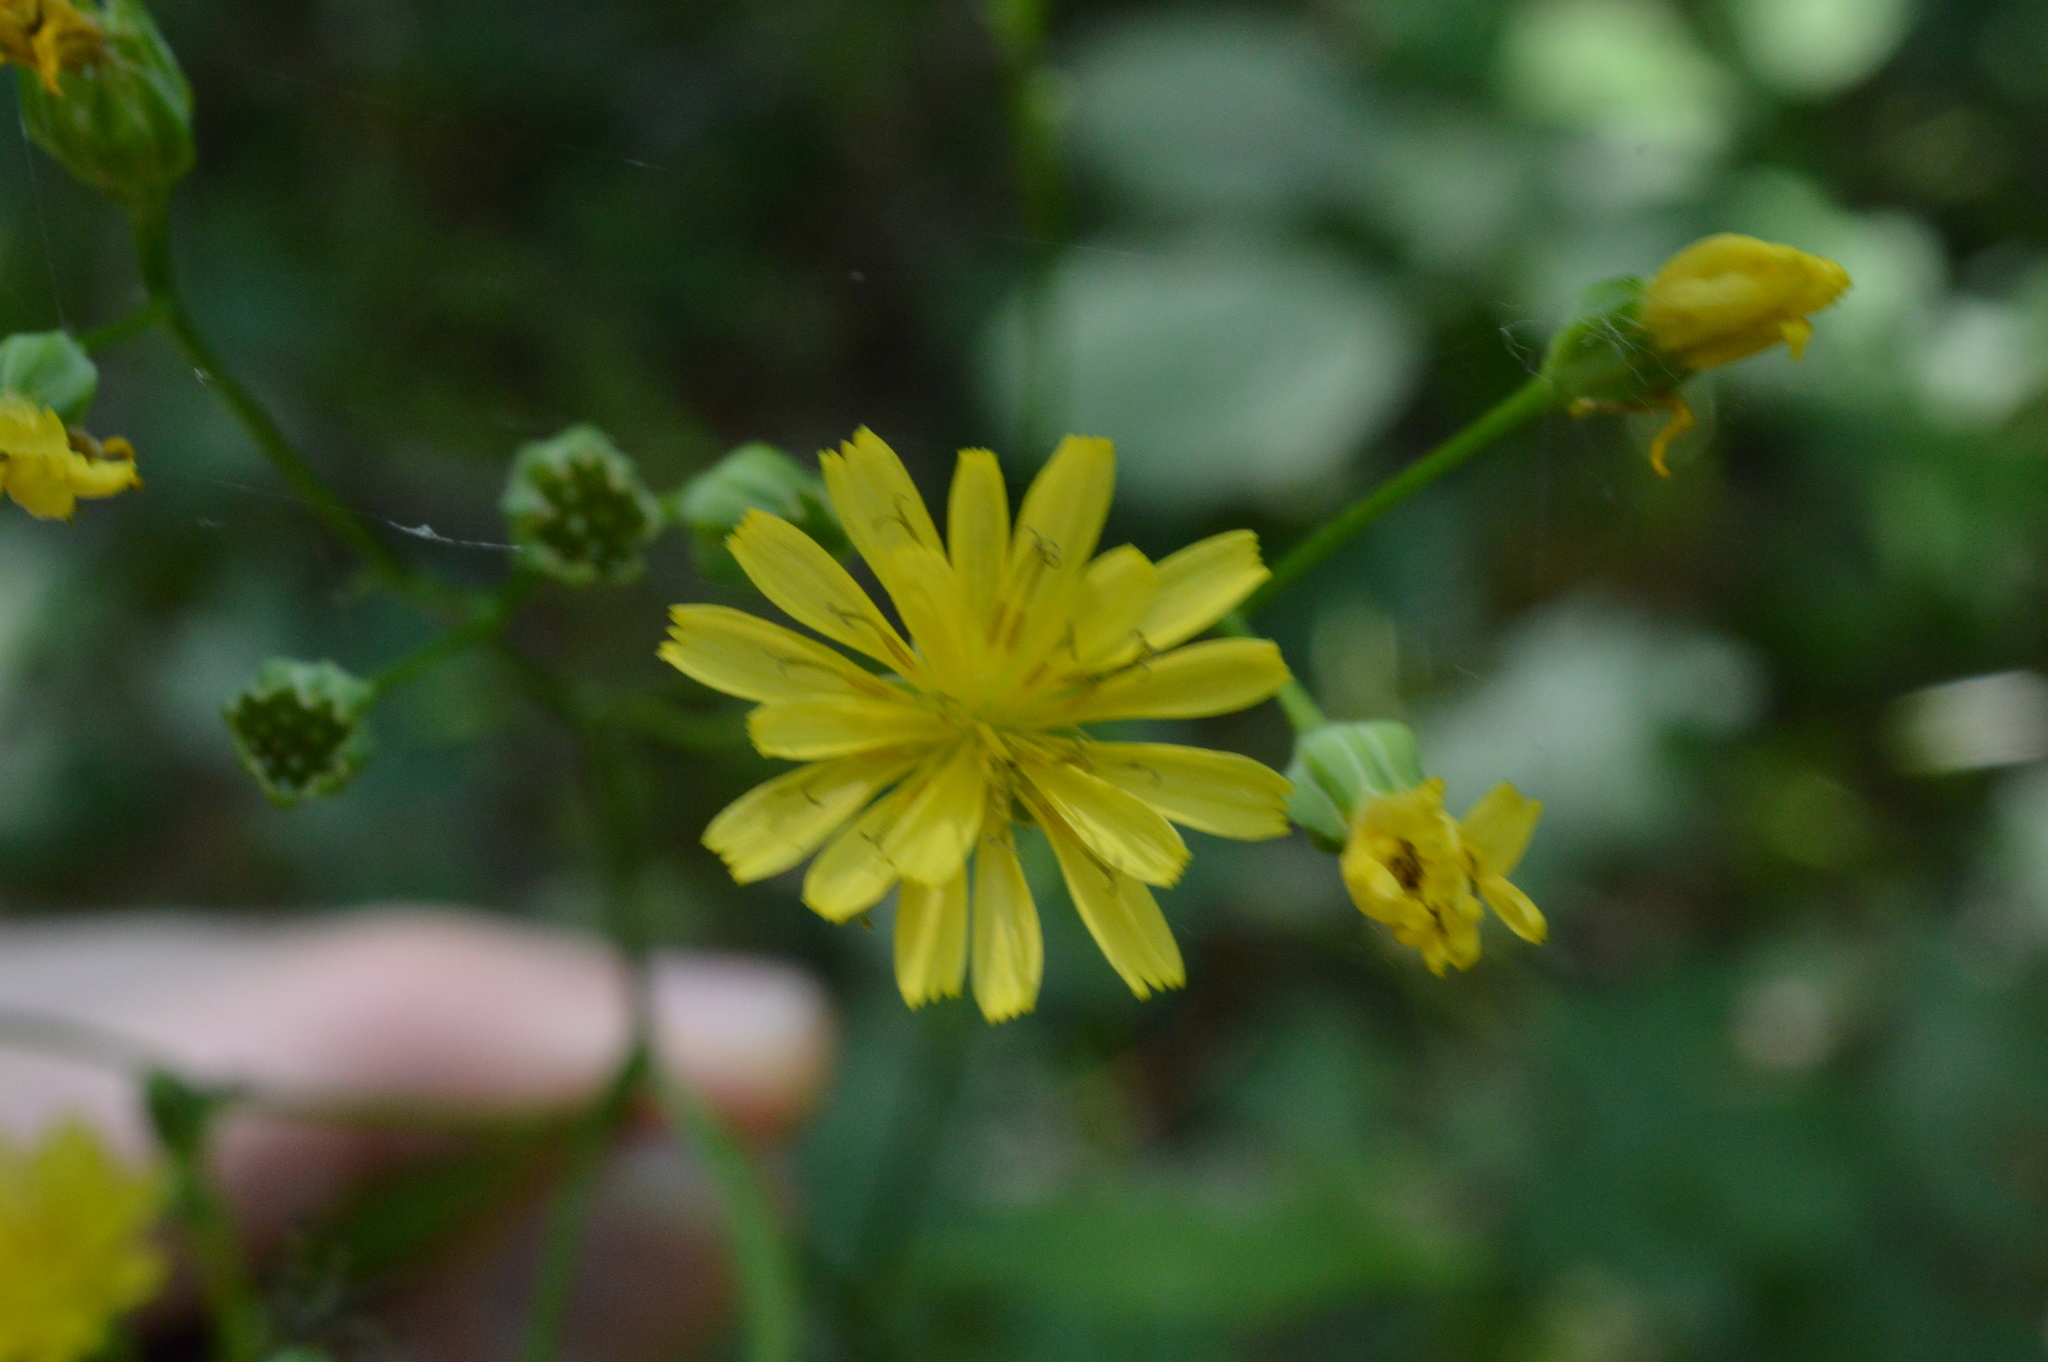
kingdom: Plantae
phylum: Tracheophyta
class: Magnoliopsida
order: Asterales
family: Asteraceae
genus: Lapsana
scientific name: Lapsana communis
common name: Nipplewort
